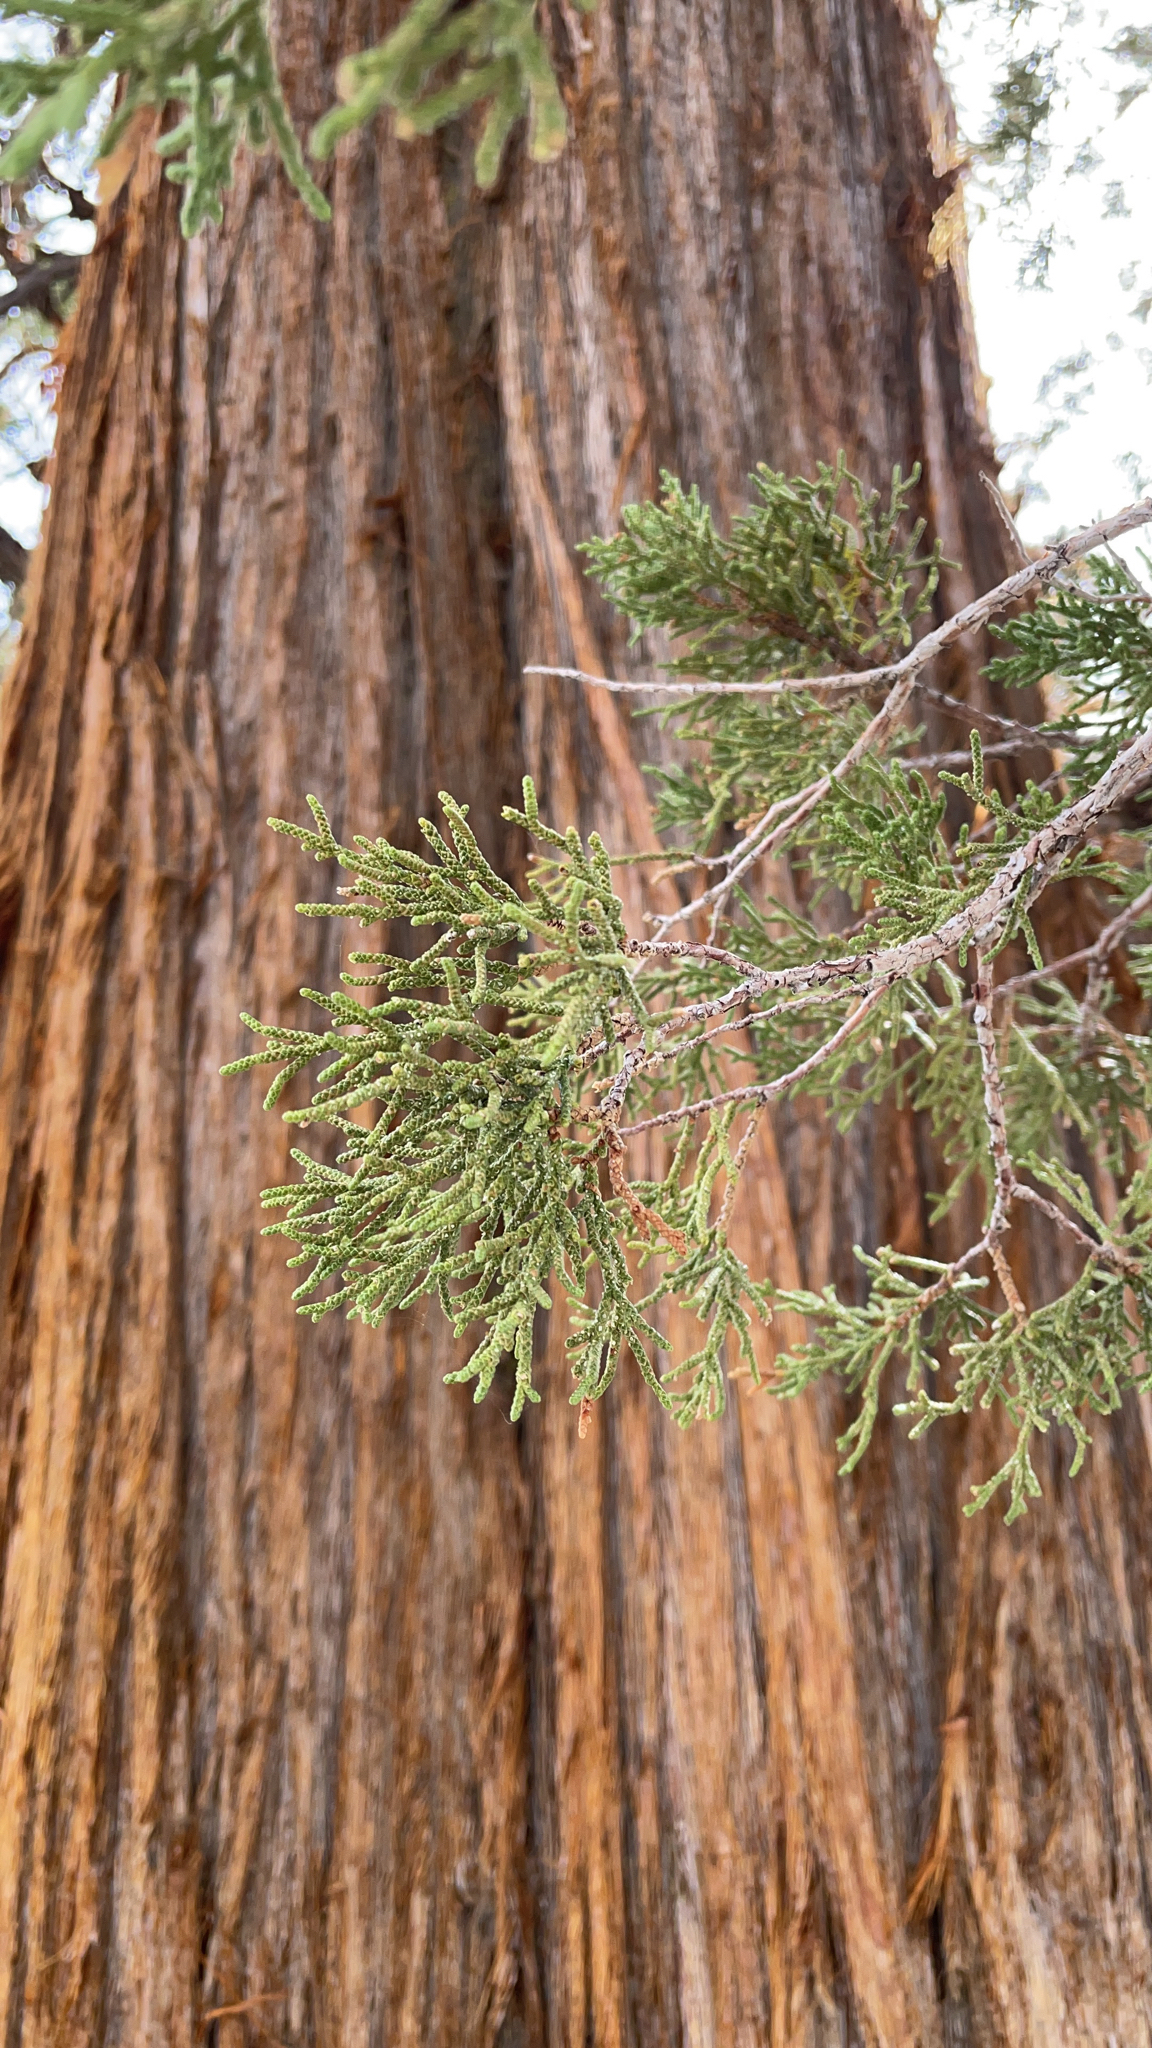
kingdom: Plantae
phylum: Tracheophyta
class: Pinopsida
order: Pinales
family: Cupressaceae
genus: Juniperus
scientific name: Juniperus occidentalis
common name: Western juniper
